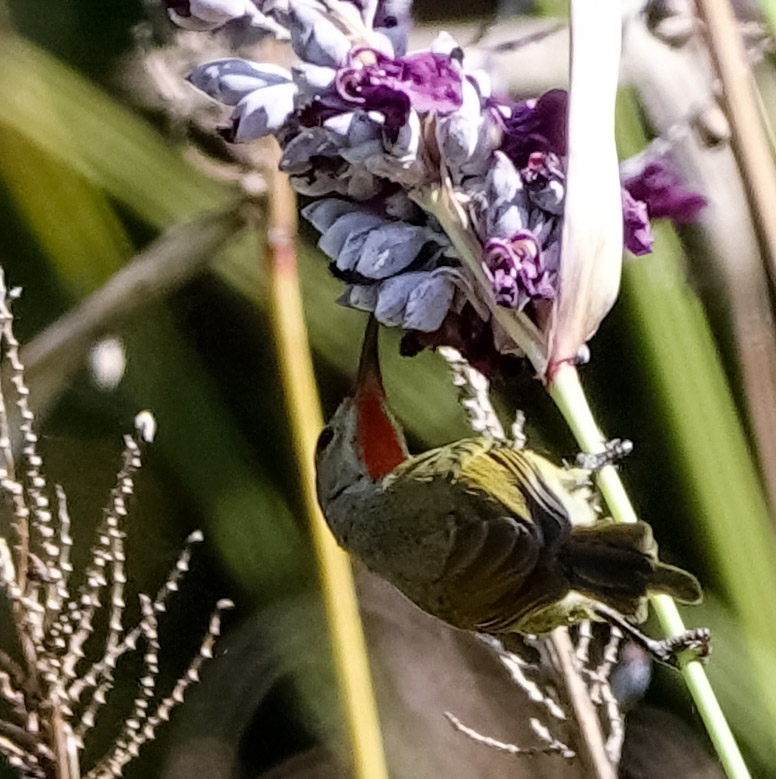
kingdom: Animalia
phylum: Chordata
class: Aves
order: Passeriformes
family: Nectariniidae
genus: Aethopyga
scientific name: Aethopyga siparaja
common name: Crimson sunbird
